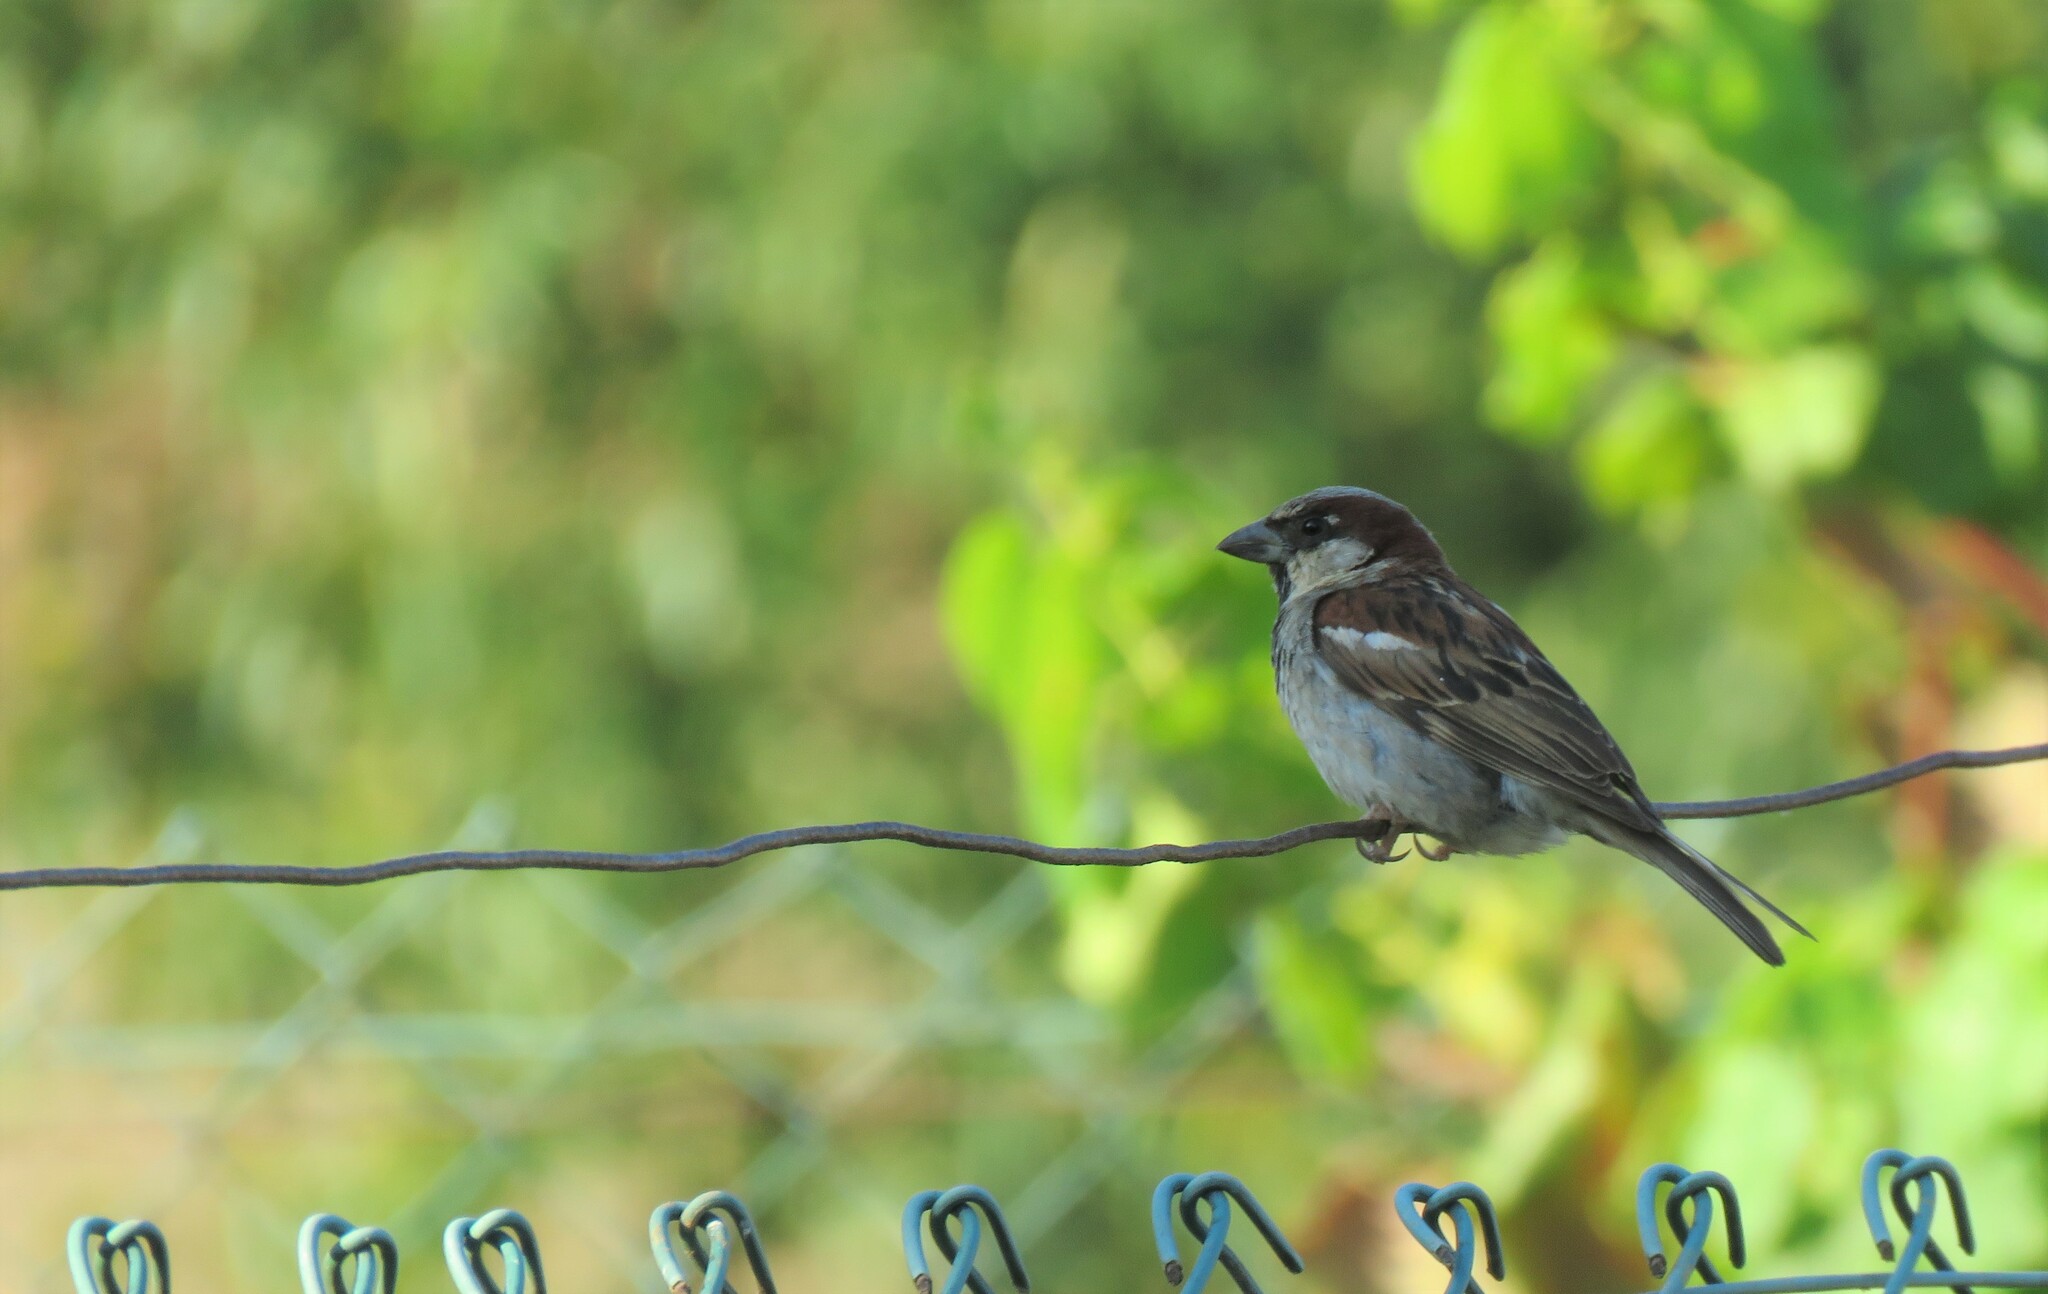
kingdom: Animalia
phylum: Chordata
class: Aves
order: Passeriformes
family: Passeridae
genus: Passer
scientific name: Passer domesticus
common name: House sparrow
